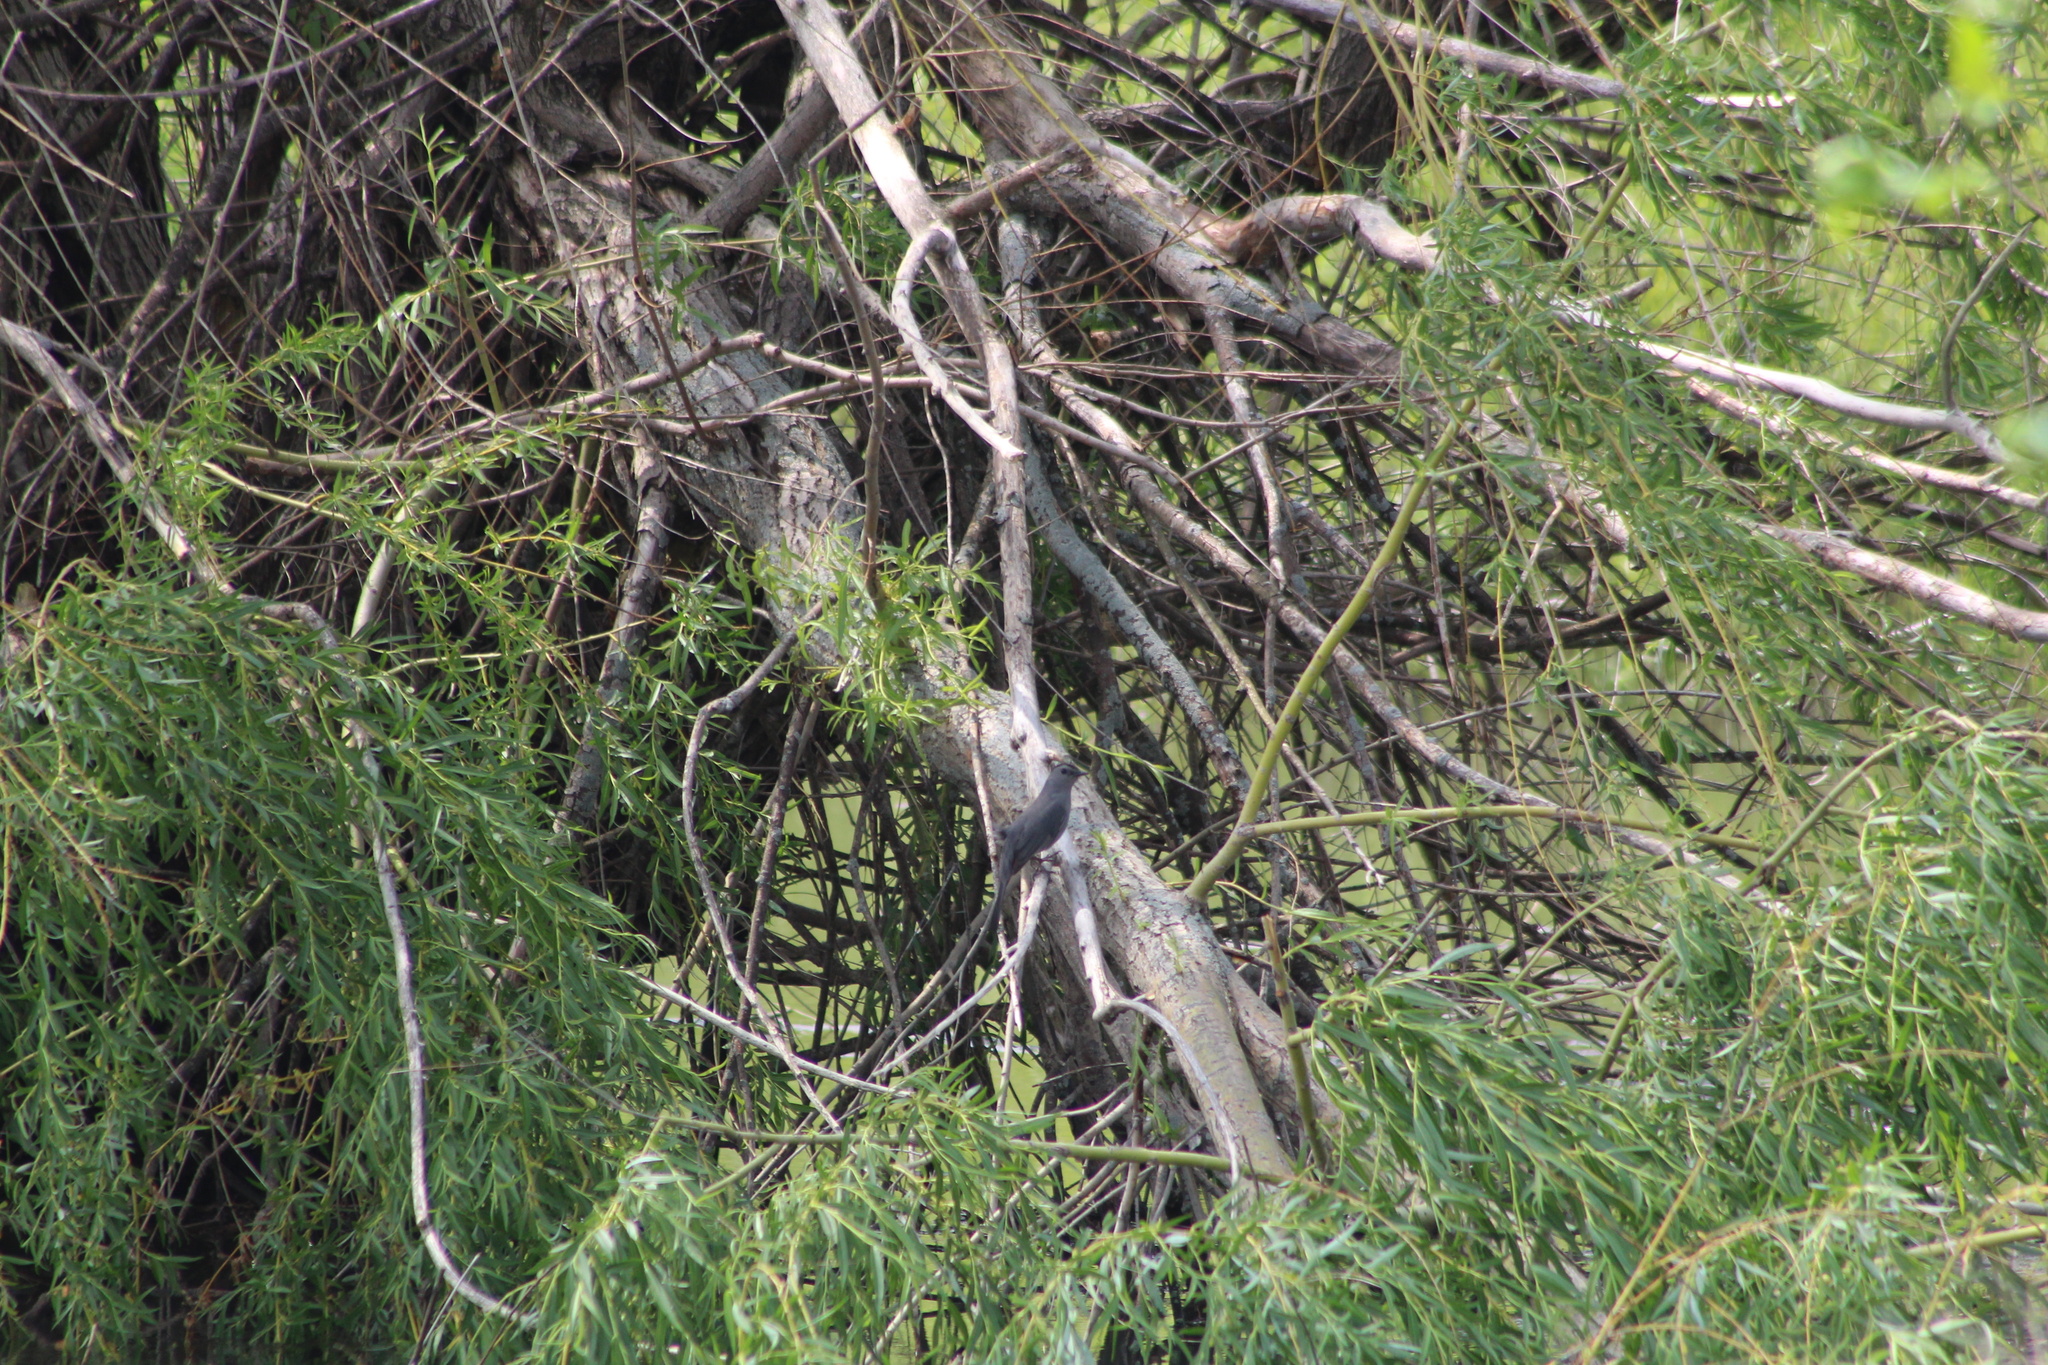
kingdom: Animalia
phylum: Chordata
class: Aves
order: Passeriformes
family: Mimidae
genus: Dumetella
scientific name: Dumetella carolinensis
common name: Gray catbird
